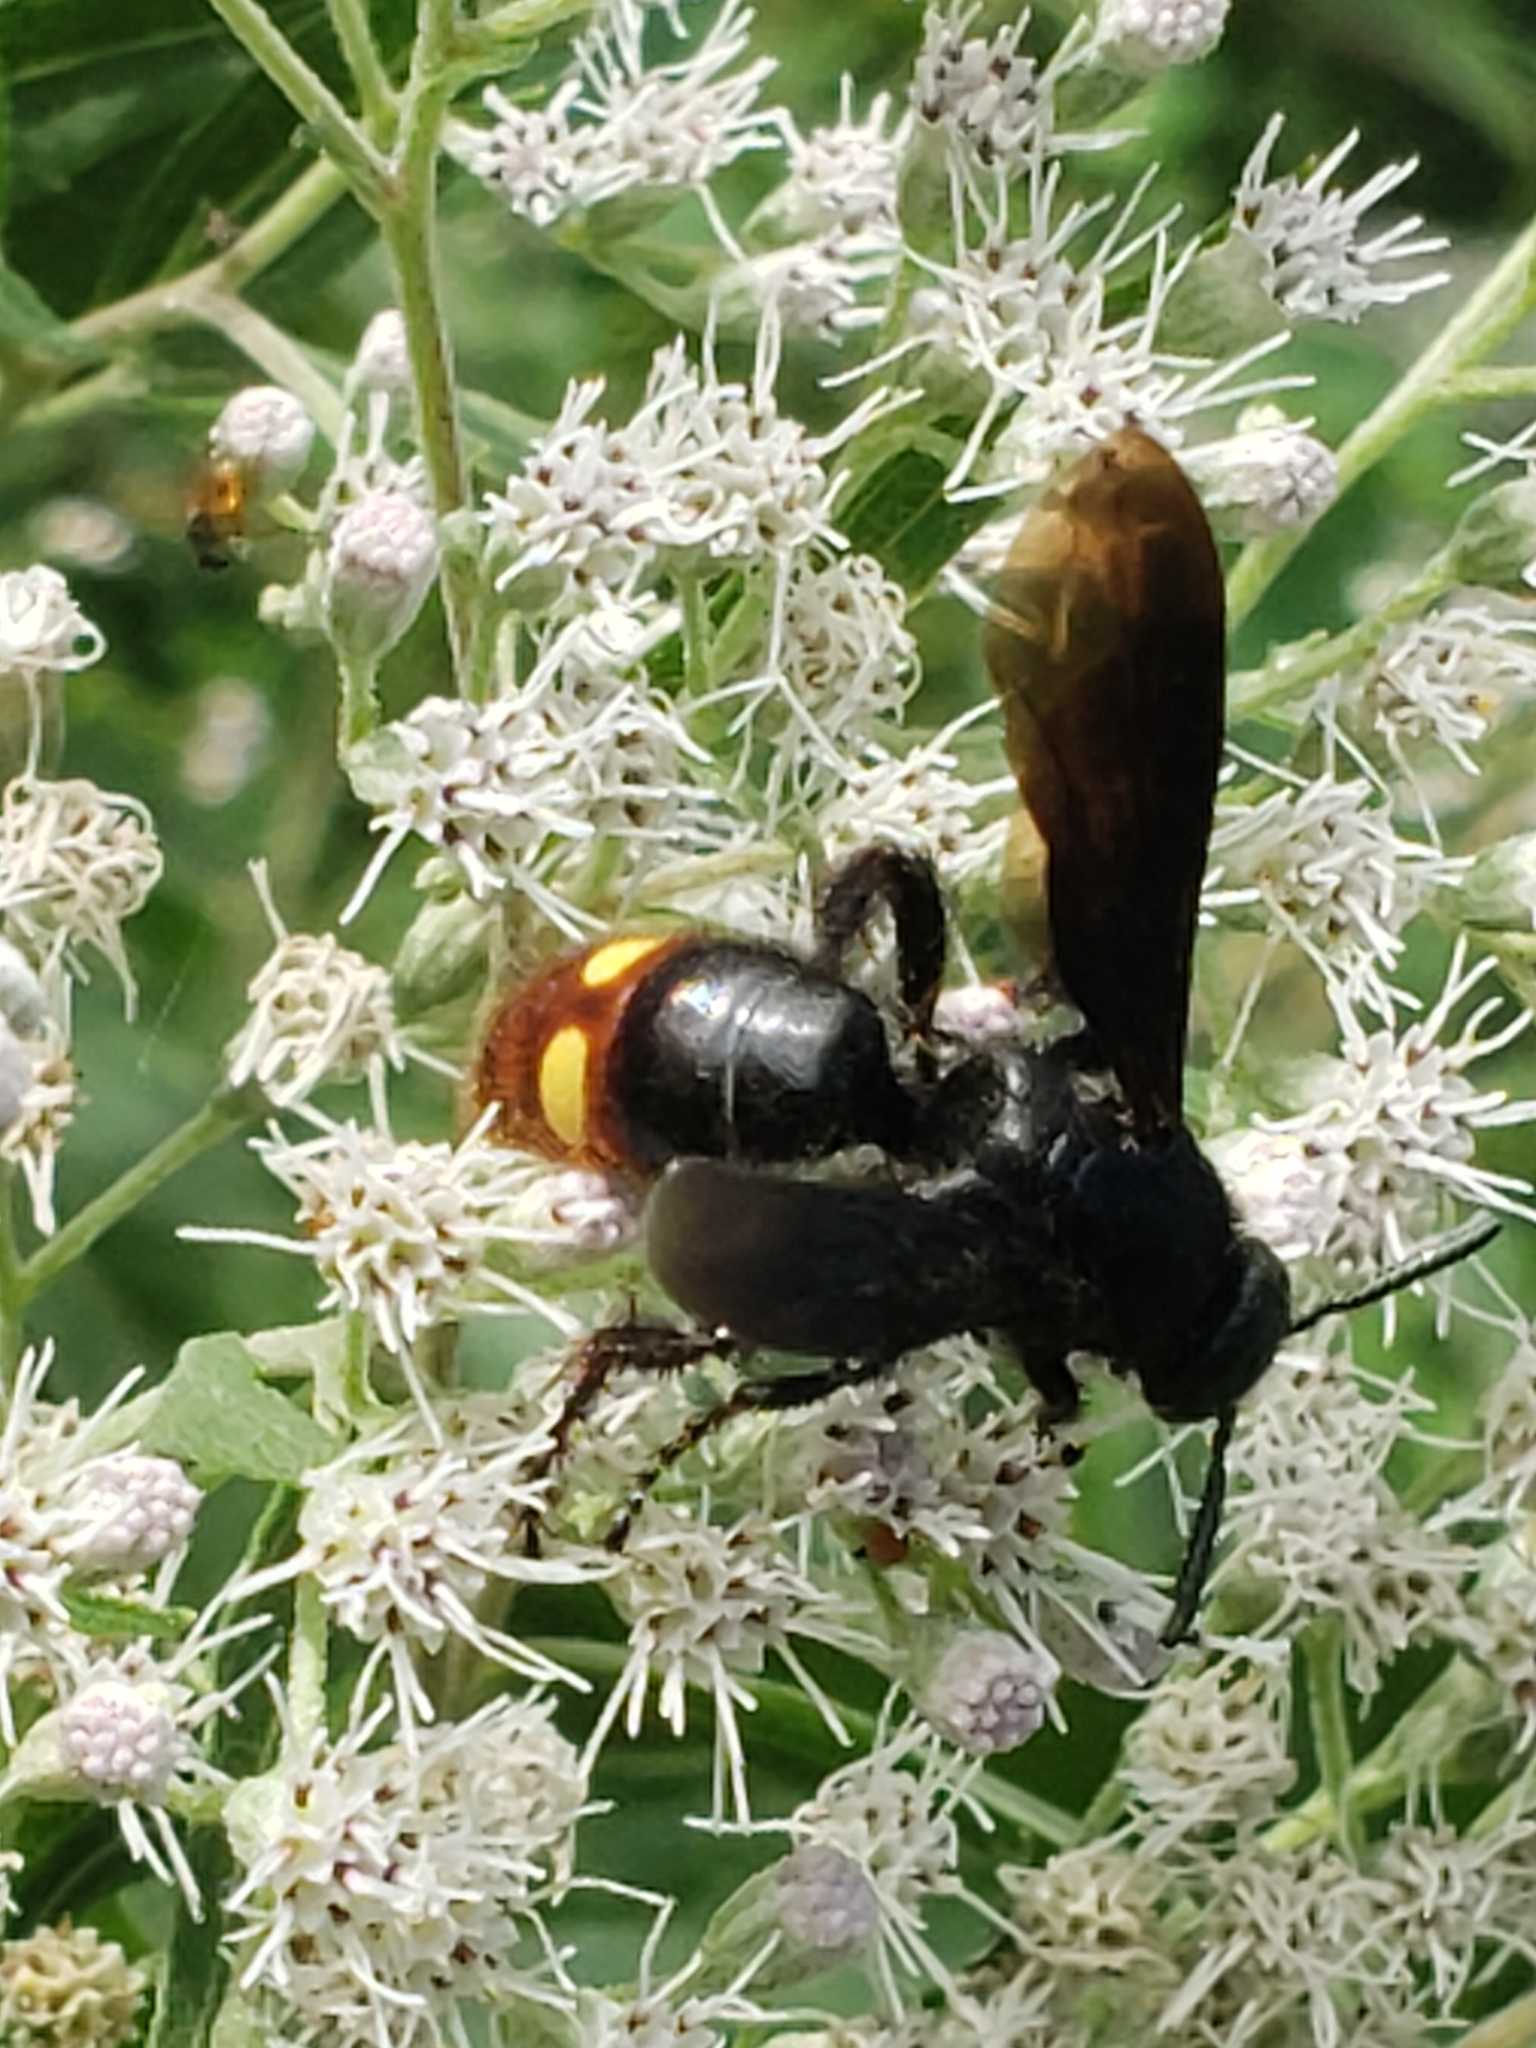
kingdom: Animalia
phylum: Arthropoda
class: Insecta
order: Hymenoptera
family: Scoliidae
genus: Scolia
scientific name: Scolia dubia
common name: Blue-winged scoliid wasp
